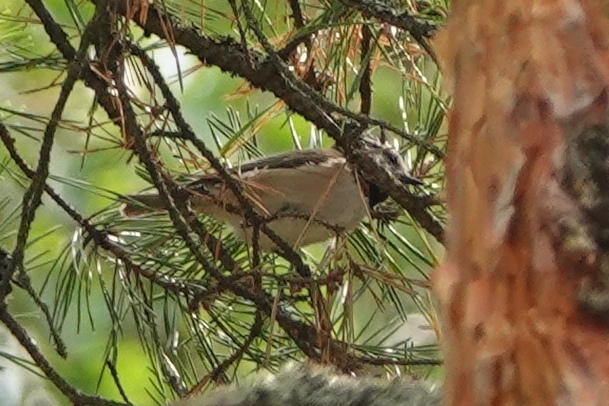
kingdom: Animalia
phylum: Chordata
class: Aves
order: Passeriformes
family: Paridae
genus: Lophophanes
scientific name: Lophophanes cristatus
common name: European crested tit
